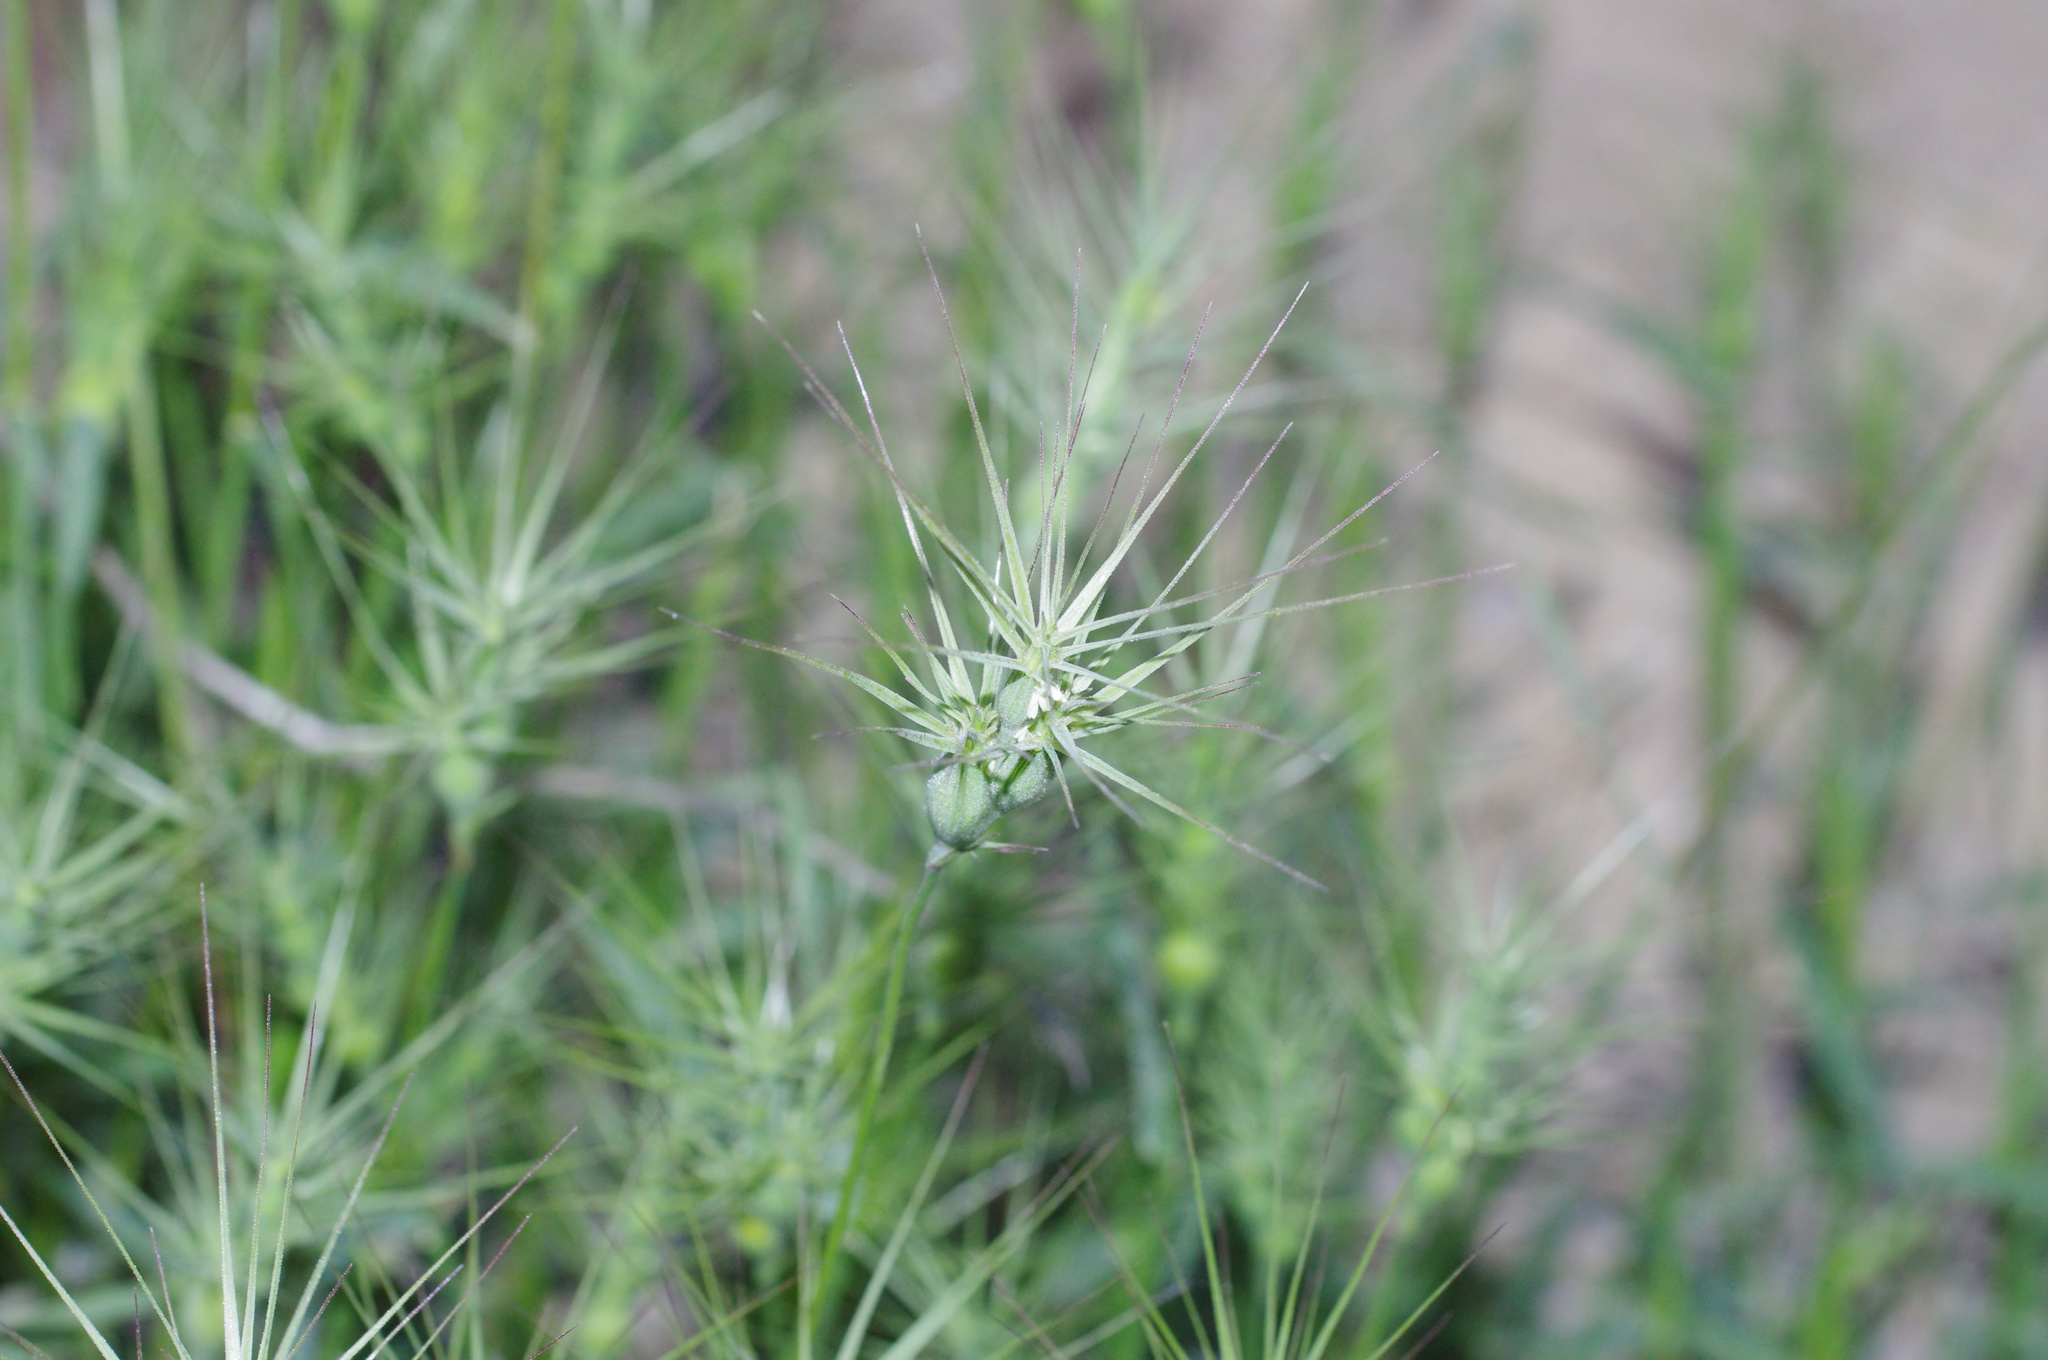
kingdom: Plantae
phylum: Tracheophyta
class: Liliopsida
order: Poales
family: Poaceae
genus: Aegilops
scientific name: Aegilops geniculata
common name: Ovate goat grass
